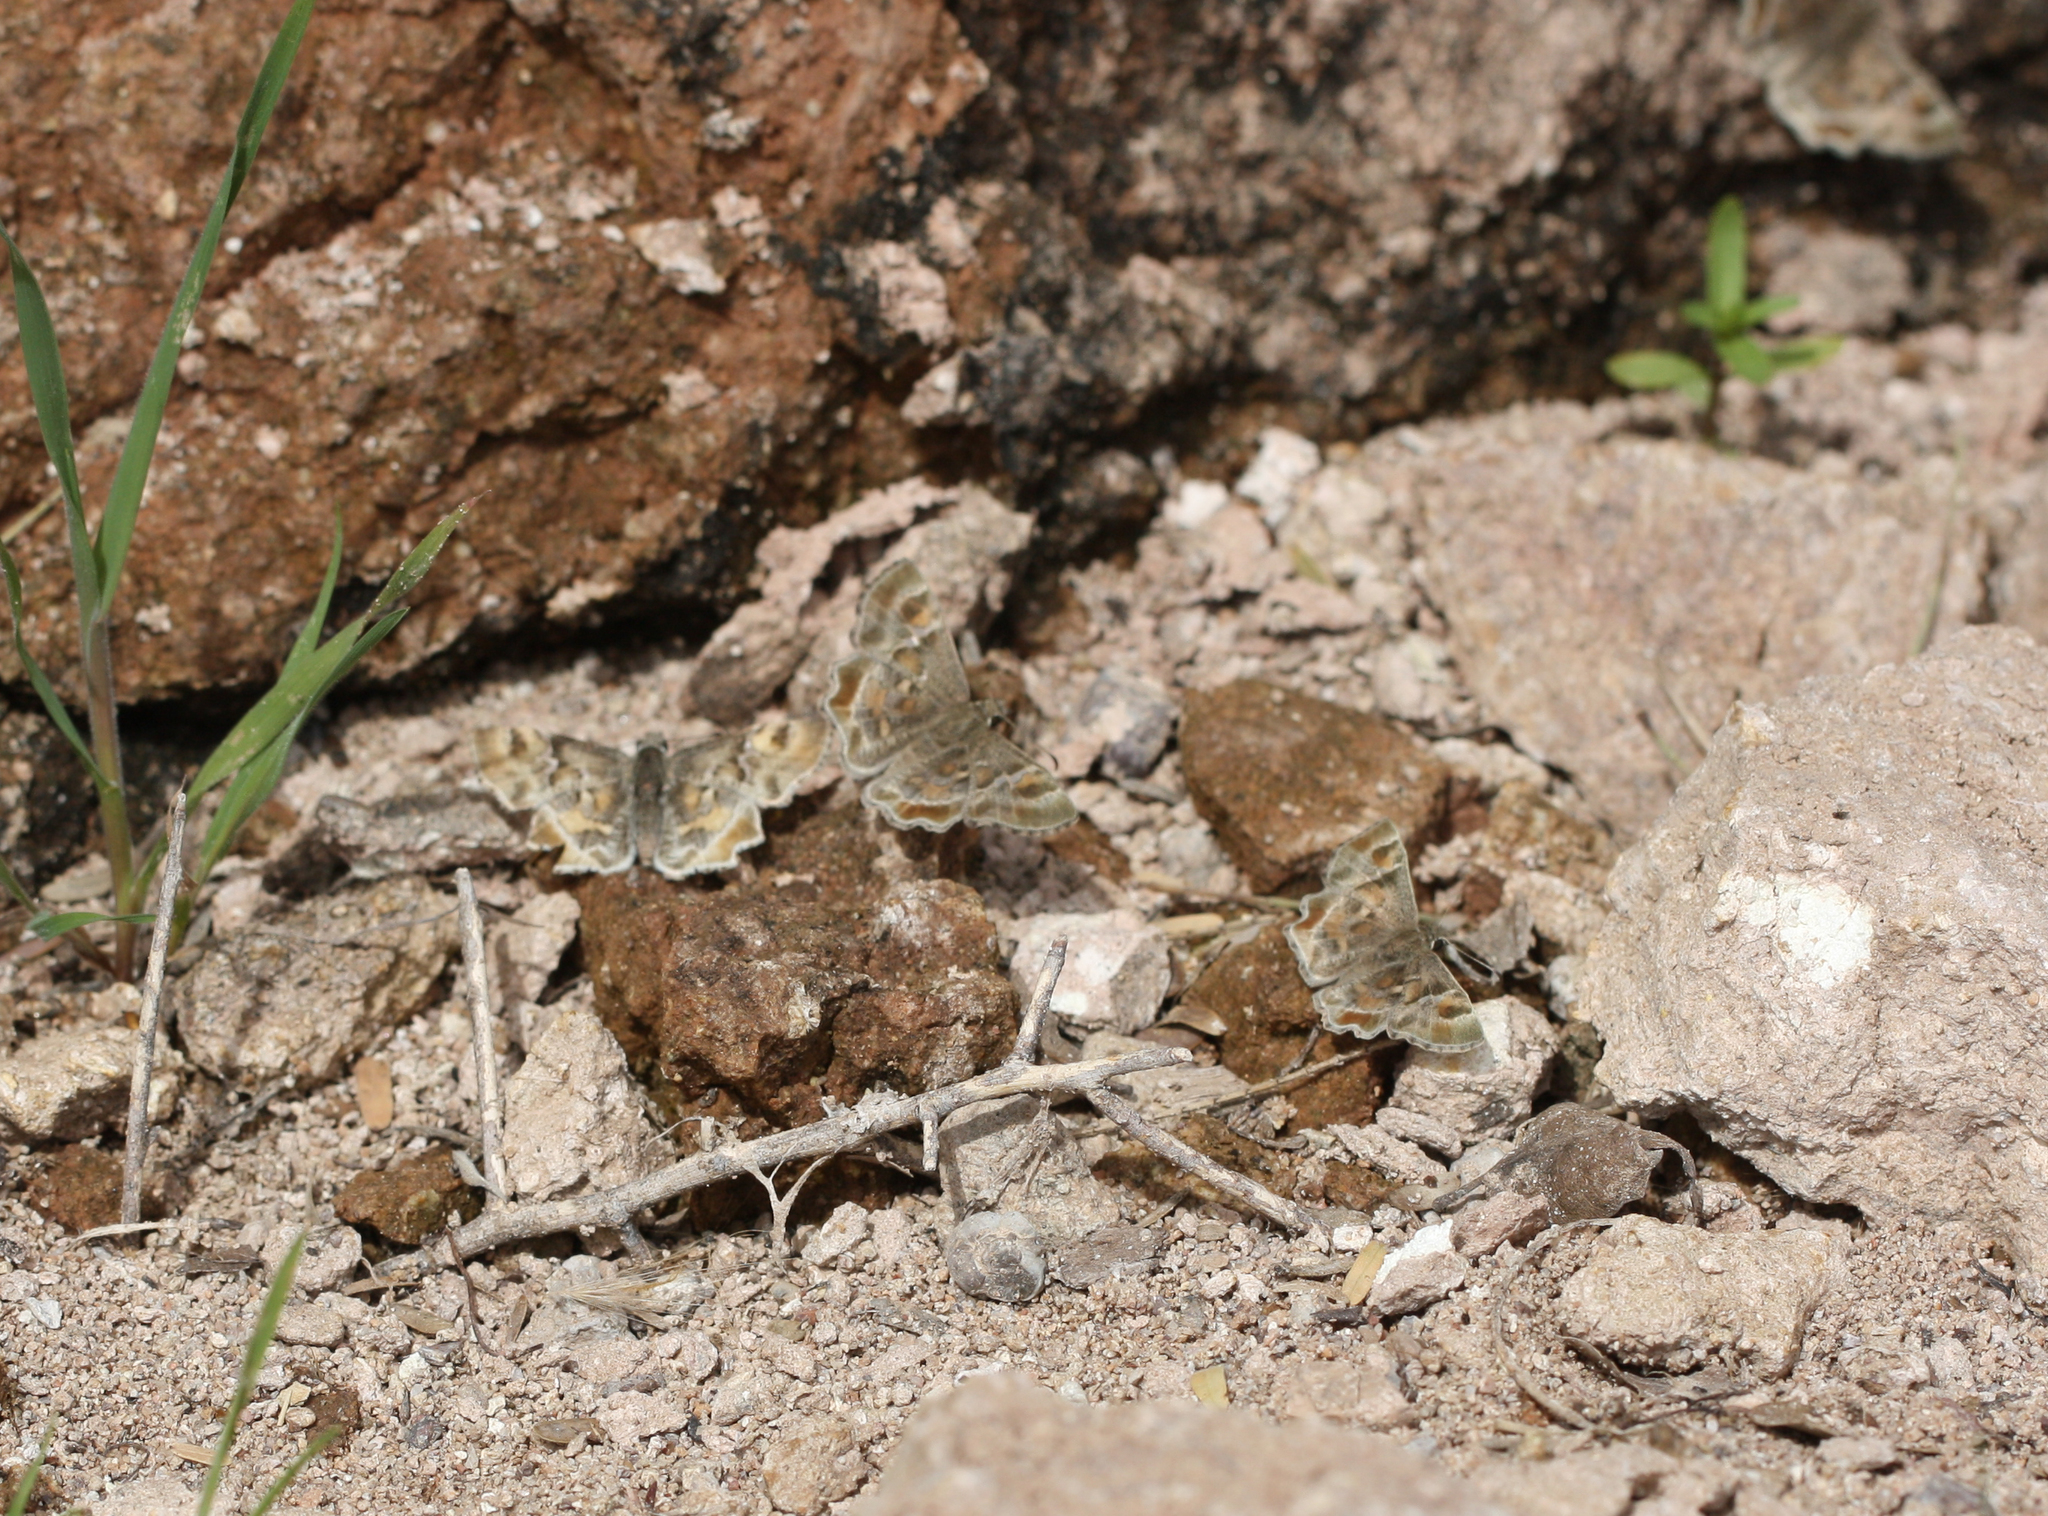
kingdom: Animalia
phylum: Arthropoda
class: Insecta
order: Lepidoptera
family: Hesperiidae
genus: Systasea
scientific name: Systasea zampa
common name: Arizona powdered-skipper
